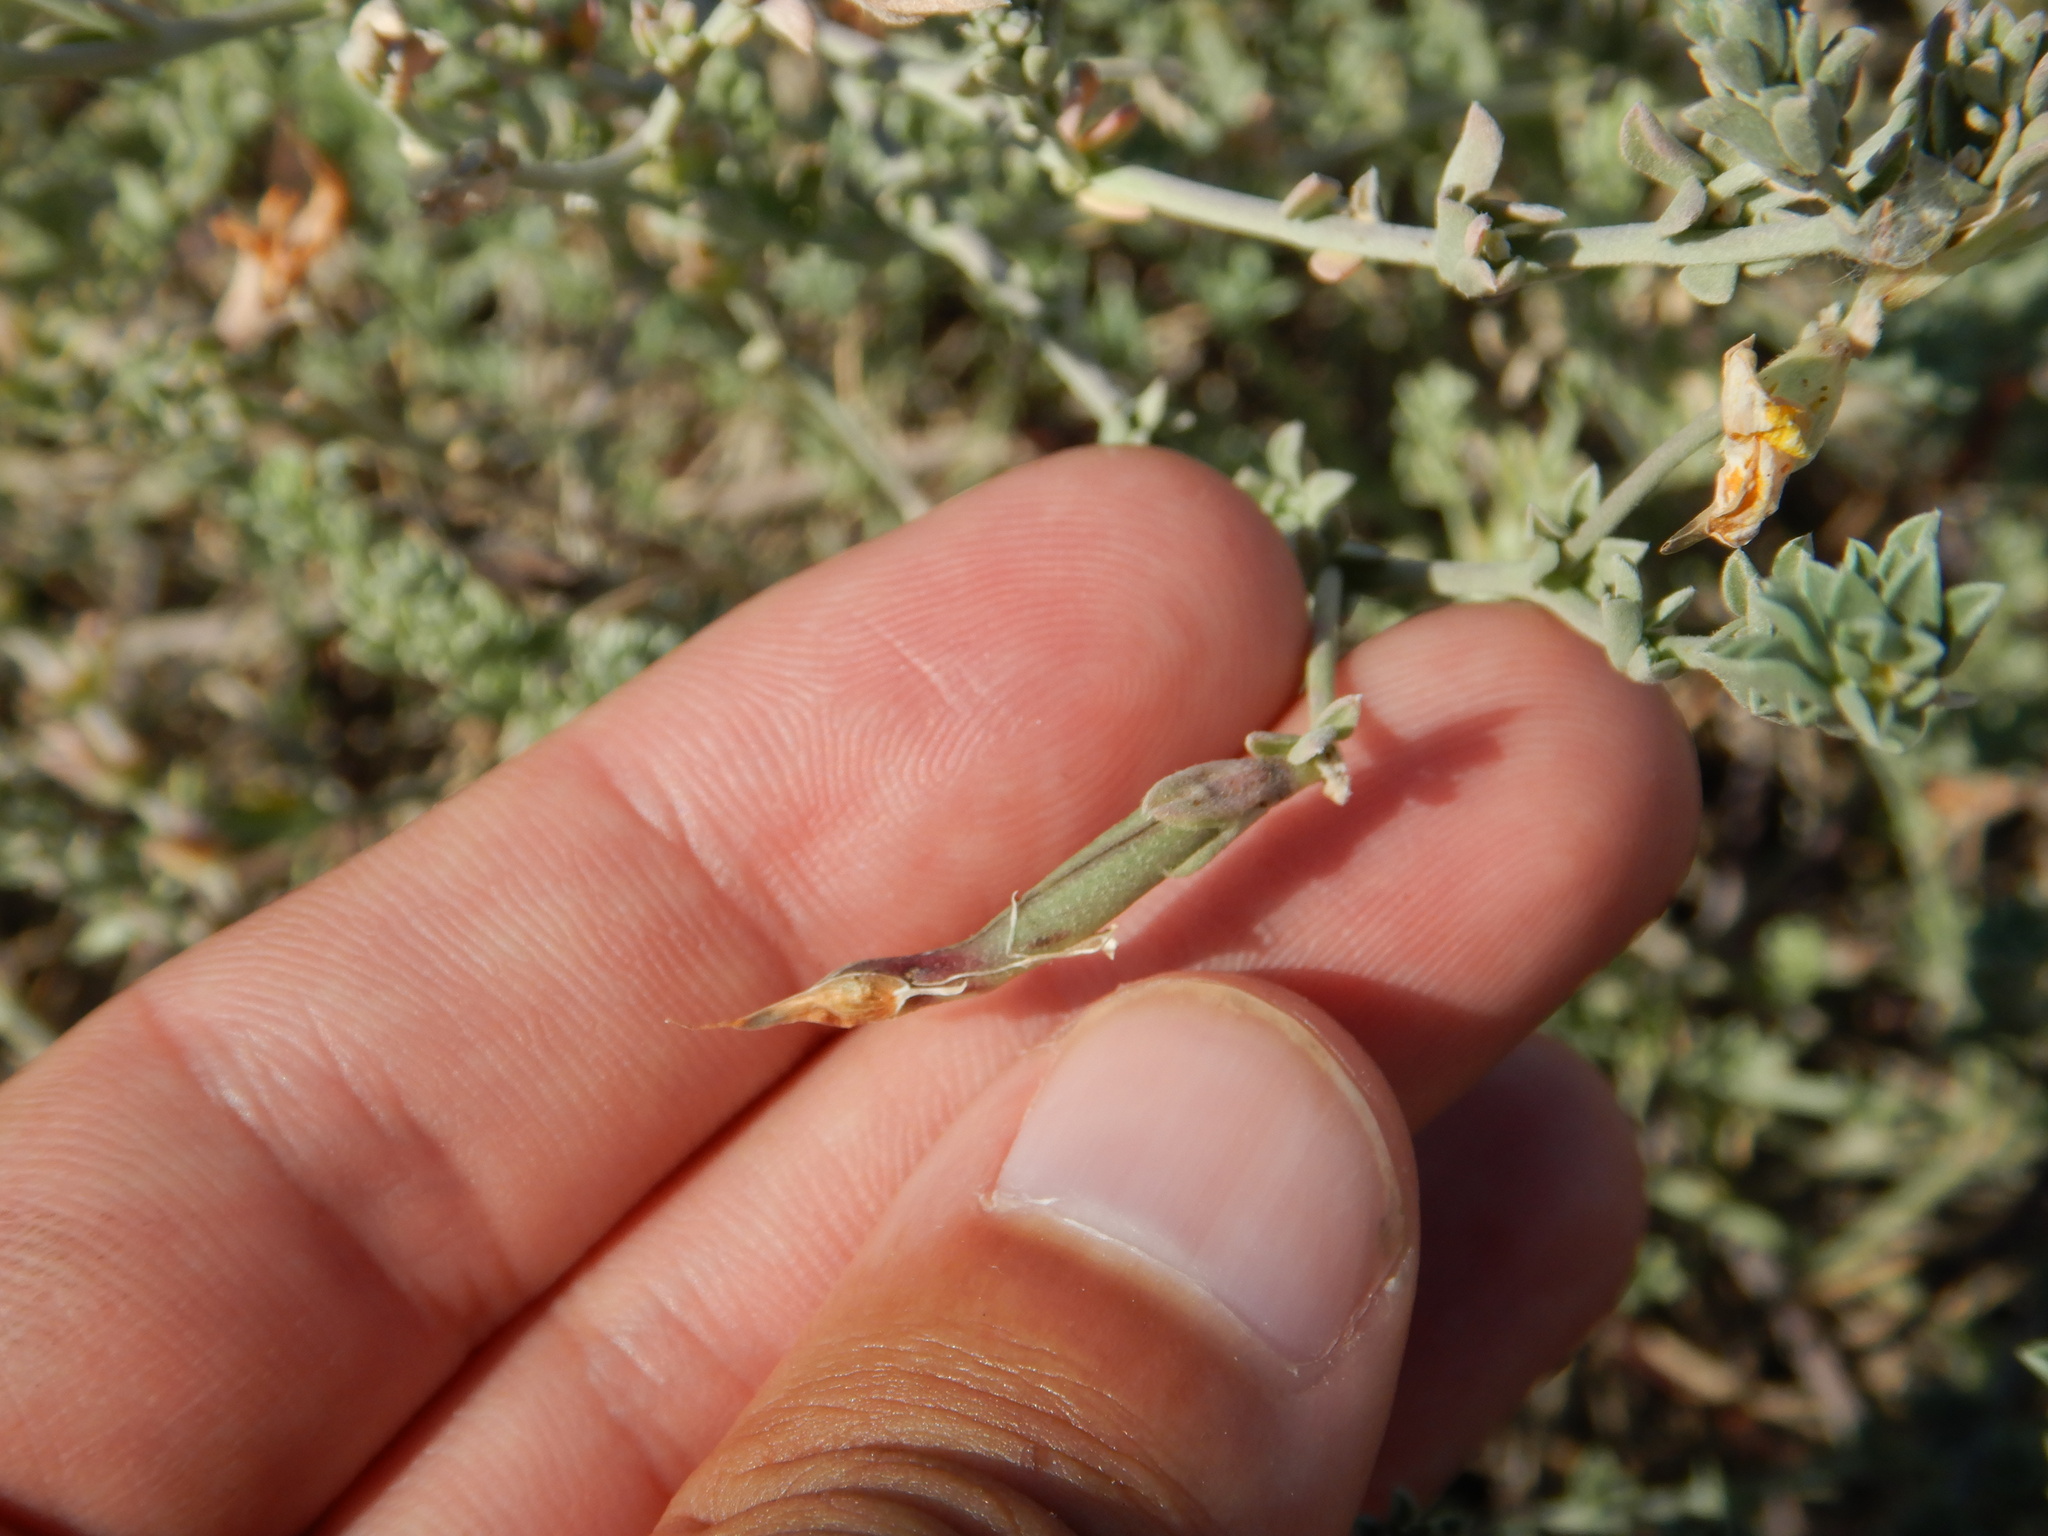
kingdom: Plantae
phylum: Tracheophyta
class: Magnoliopsida
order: Fabales
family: Fabaceae
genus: Lotus
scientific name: Lotus creticus
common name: Cretan bird's-foot trefoil
